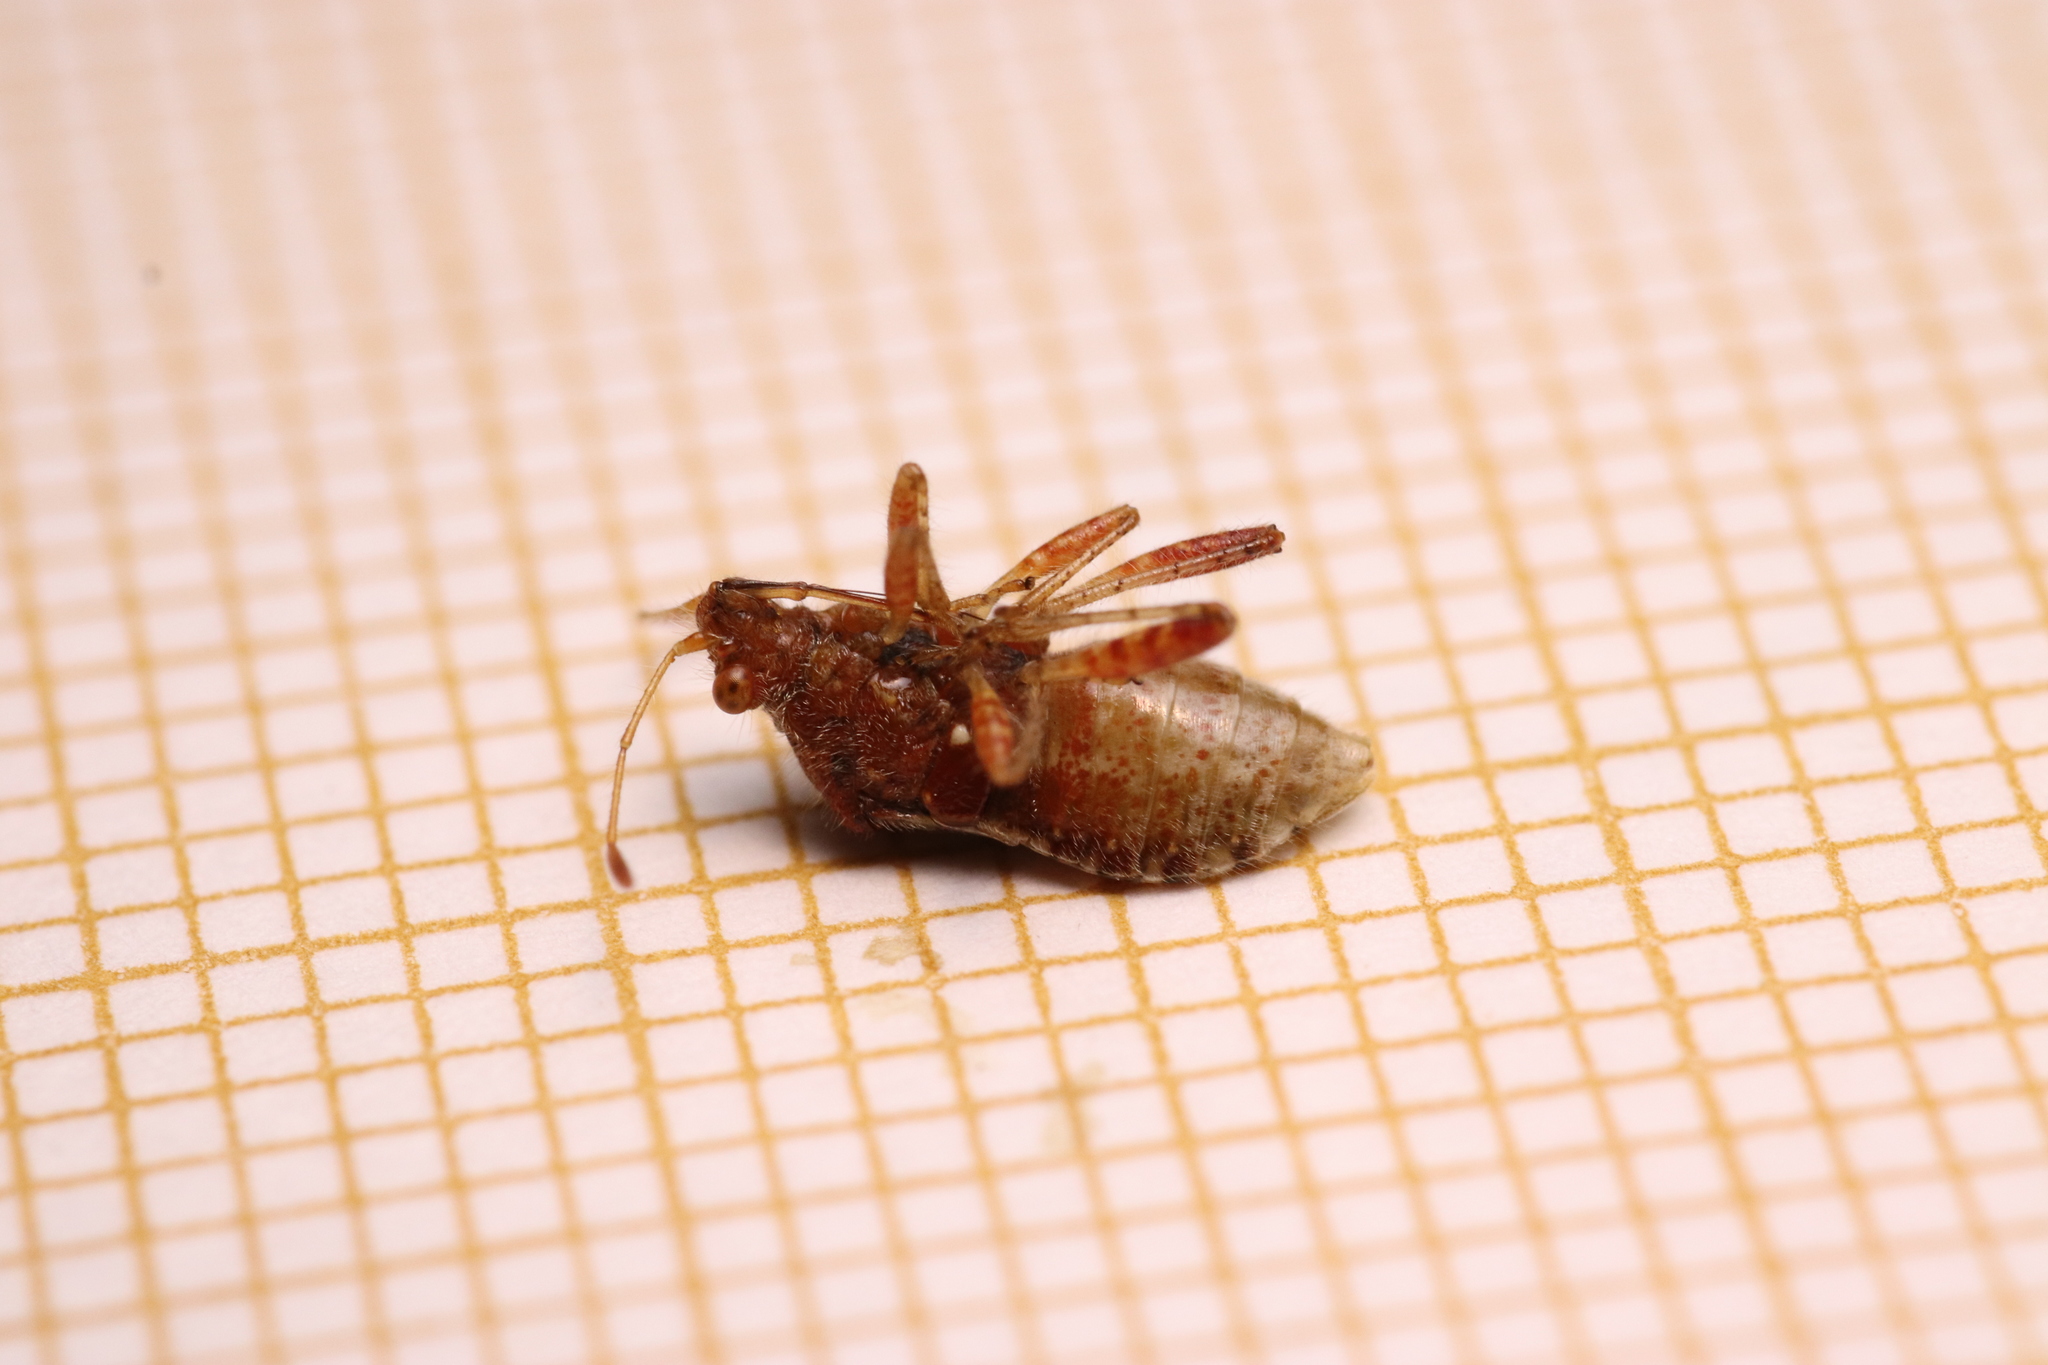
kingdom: Animalia
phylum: Arthropoda
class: Insecta
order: Hemiptera
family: Rhopalidae
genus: Rhopalus
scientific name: Rhopalus subrufus
